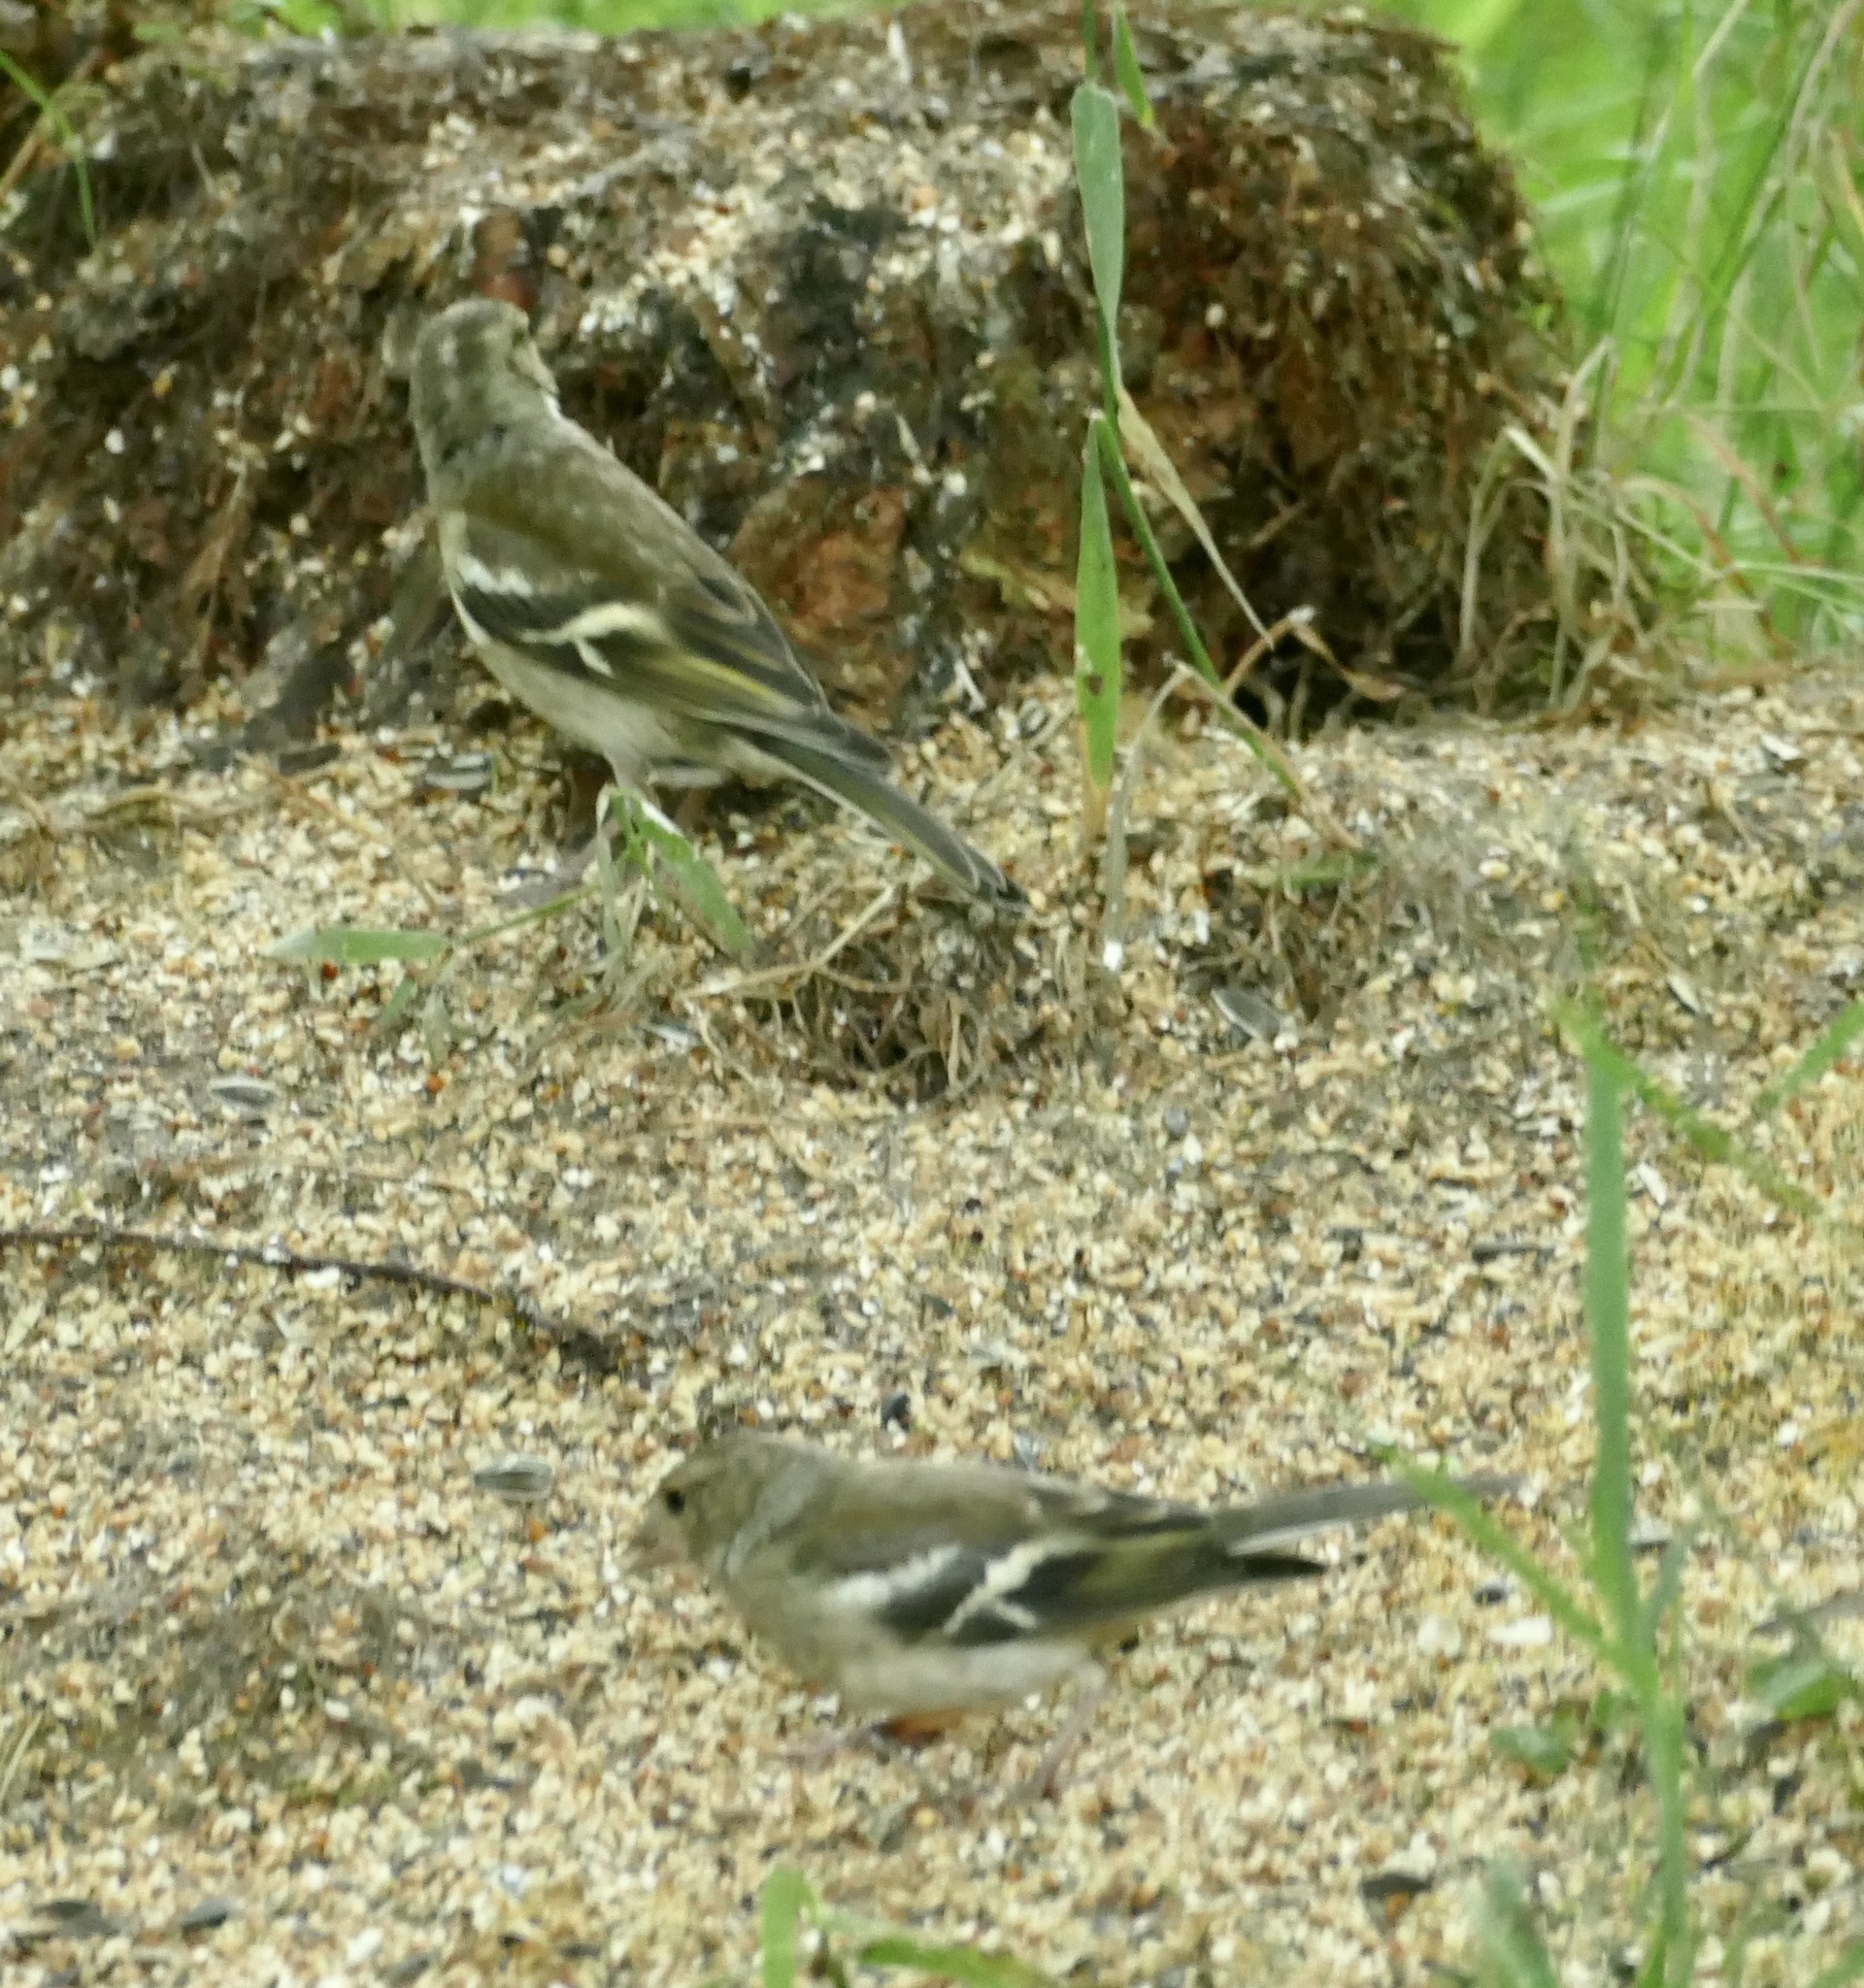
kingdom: Animalia
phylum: Chordata
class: Aves
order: Passeriformes
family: Fringillidae
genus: Fringilla
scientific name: Fringilla coelebs
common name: Common chaffinch
